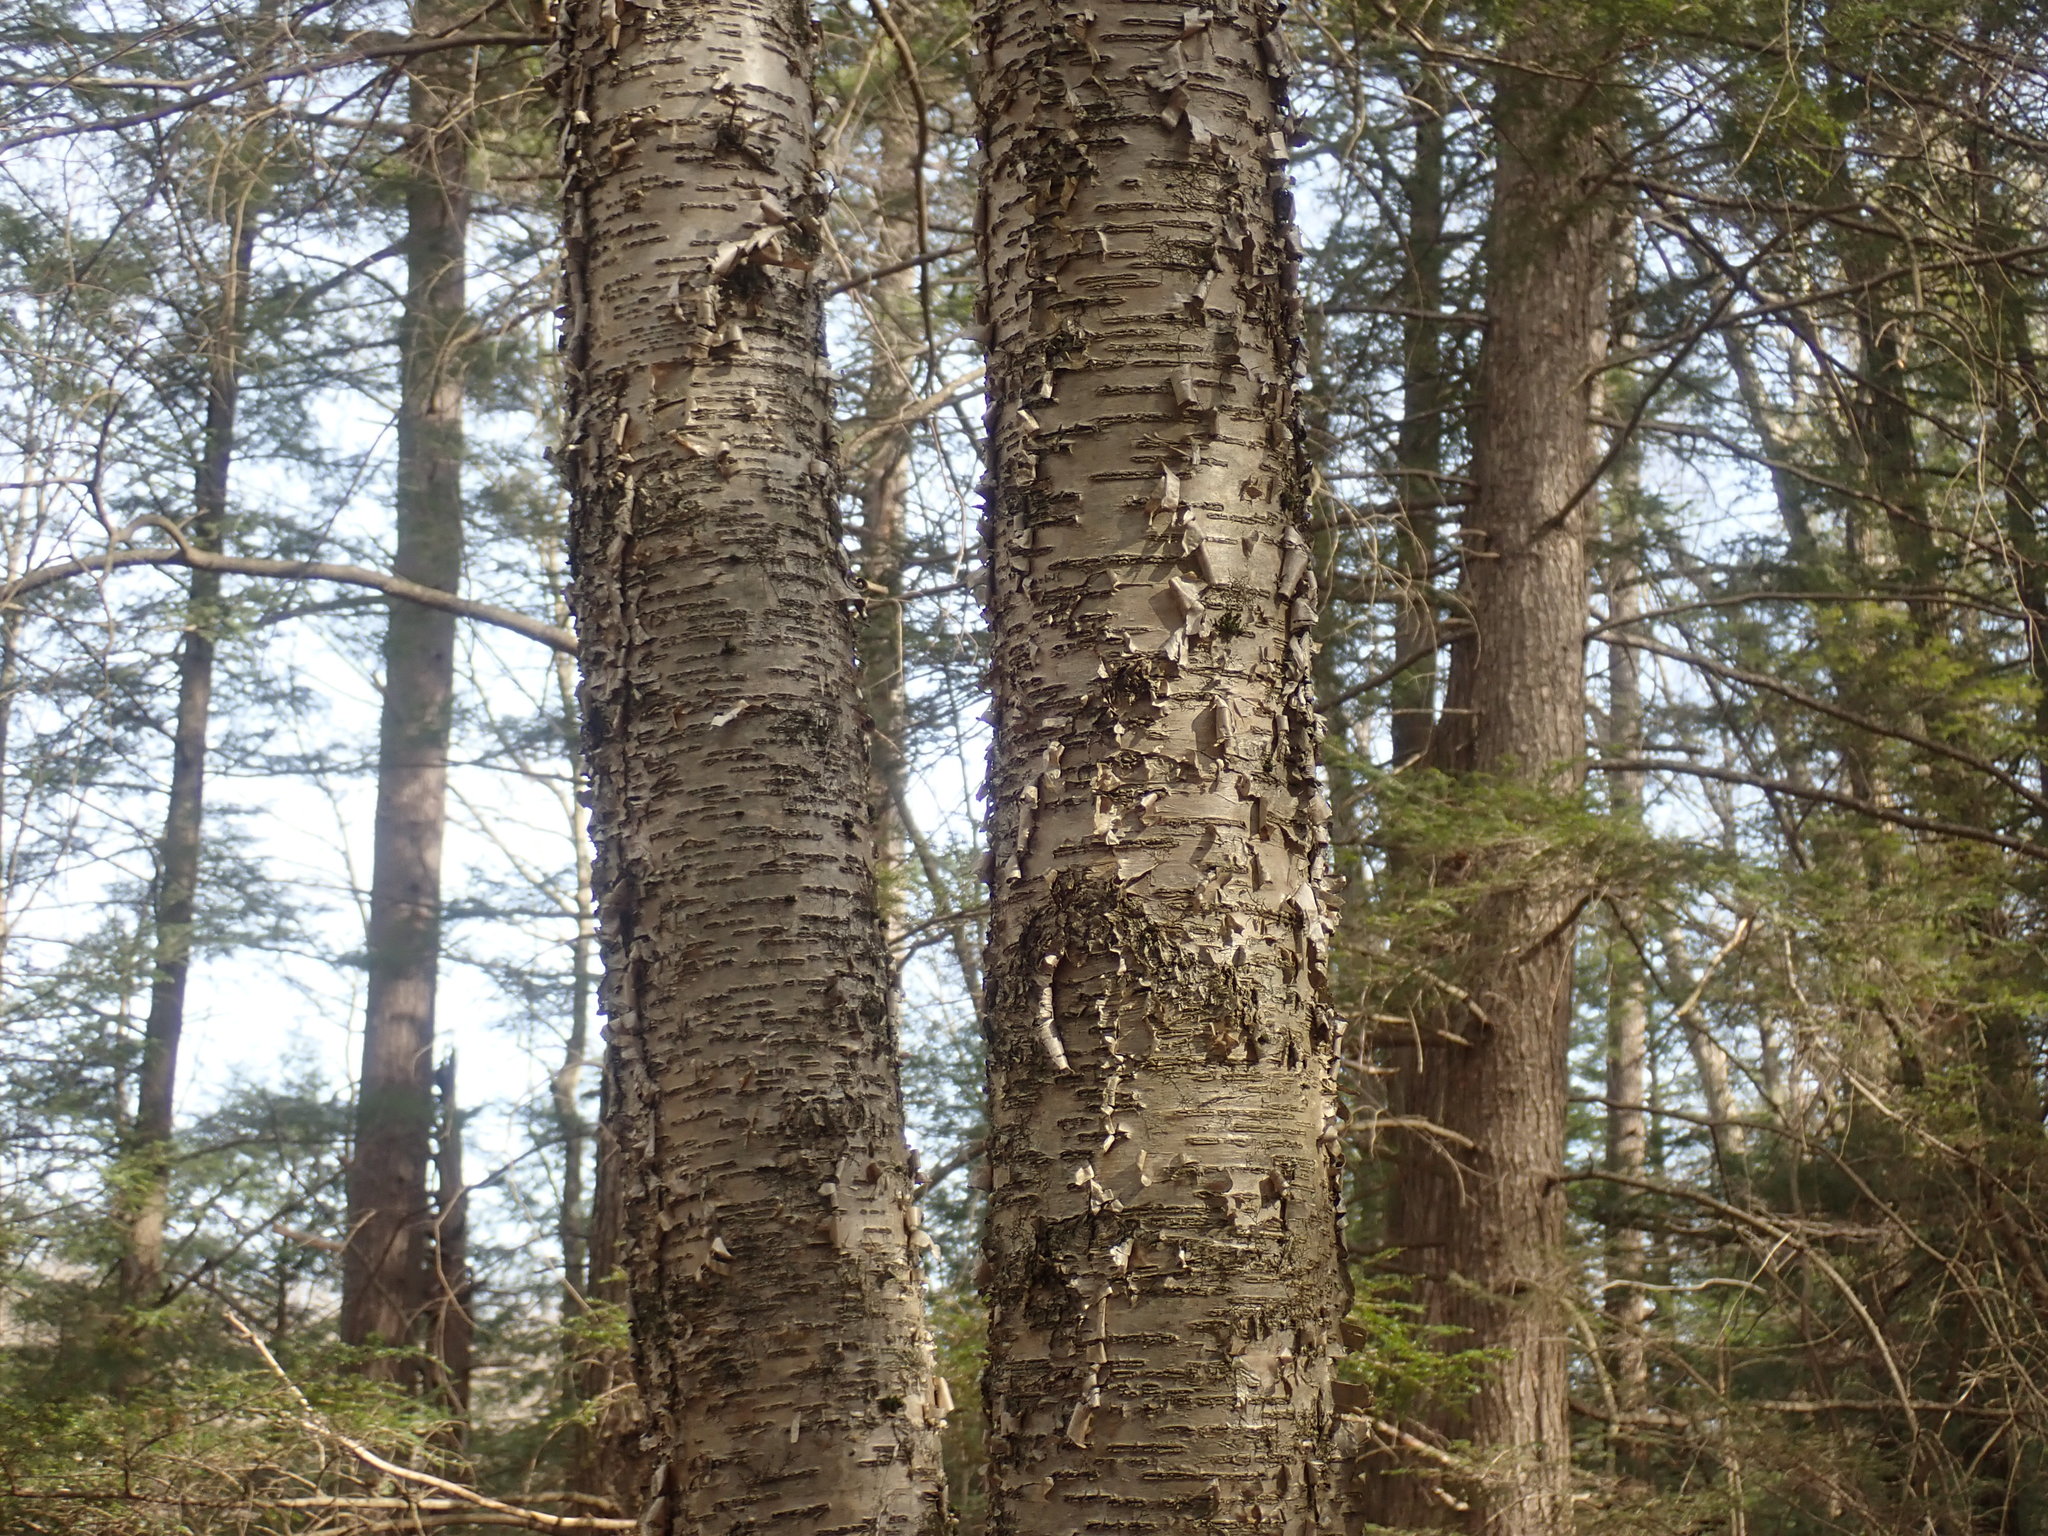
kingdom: Plantae
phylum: Tracheophyta
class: Magnoliopsida
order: Fagales
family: Betulaceae
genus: Betula
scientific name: Betula alleghaniensis
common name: Yellow birch
